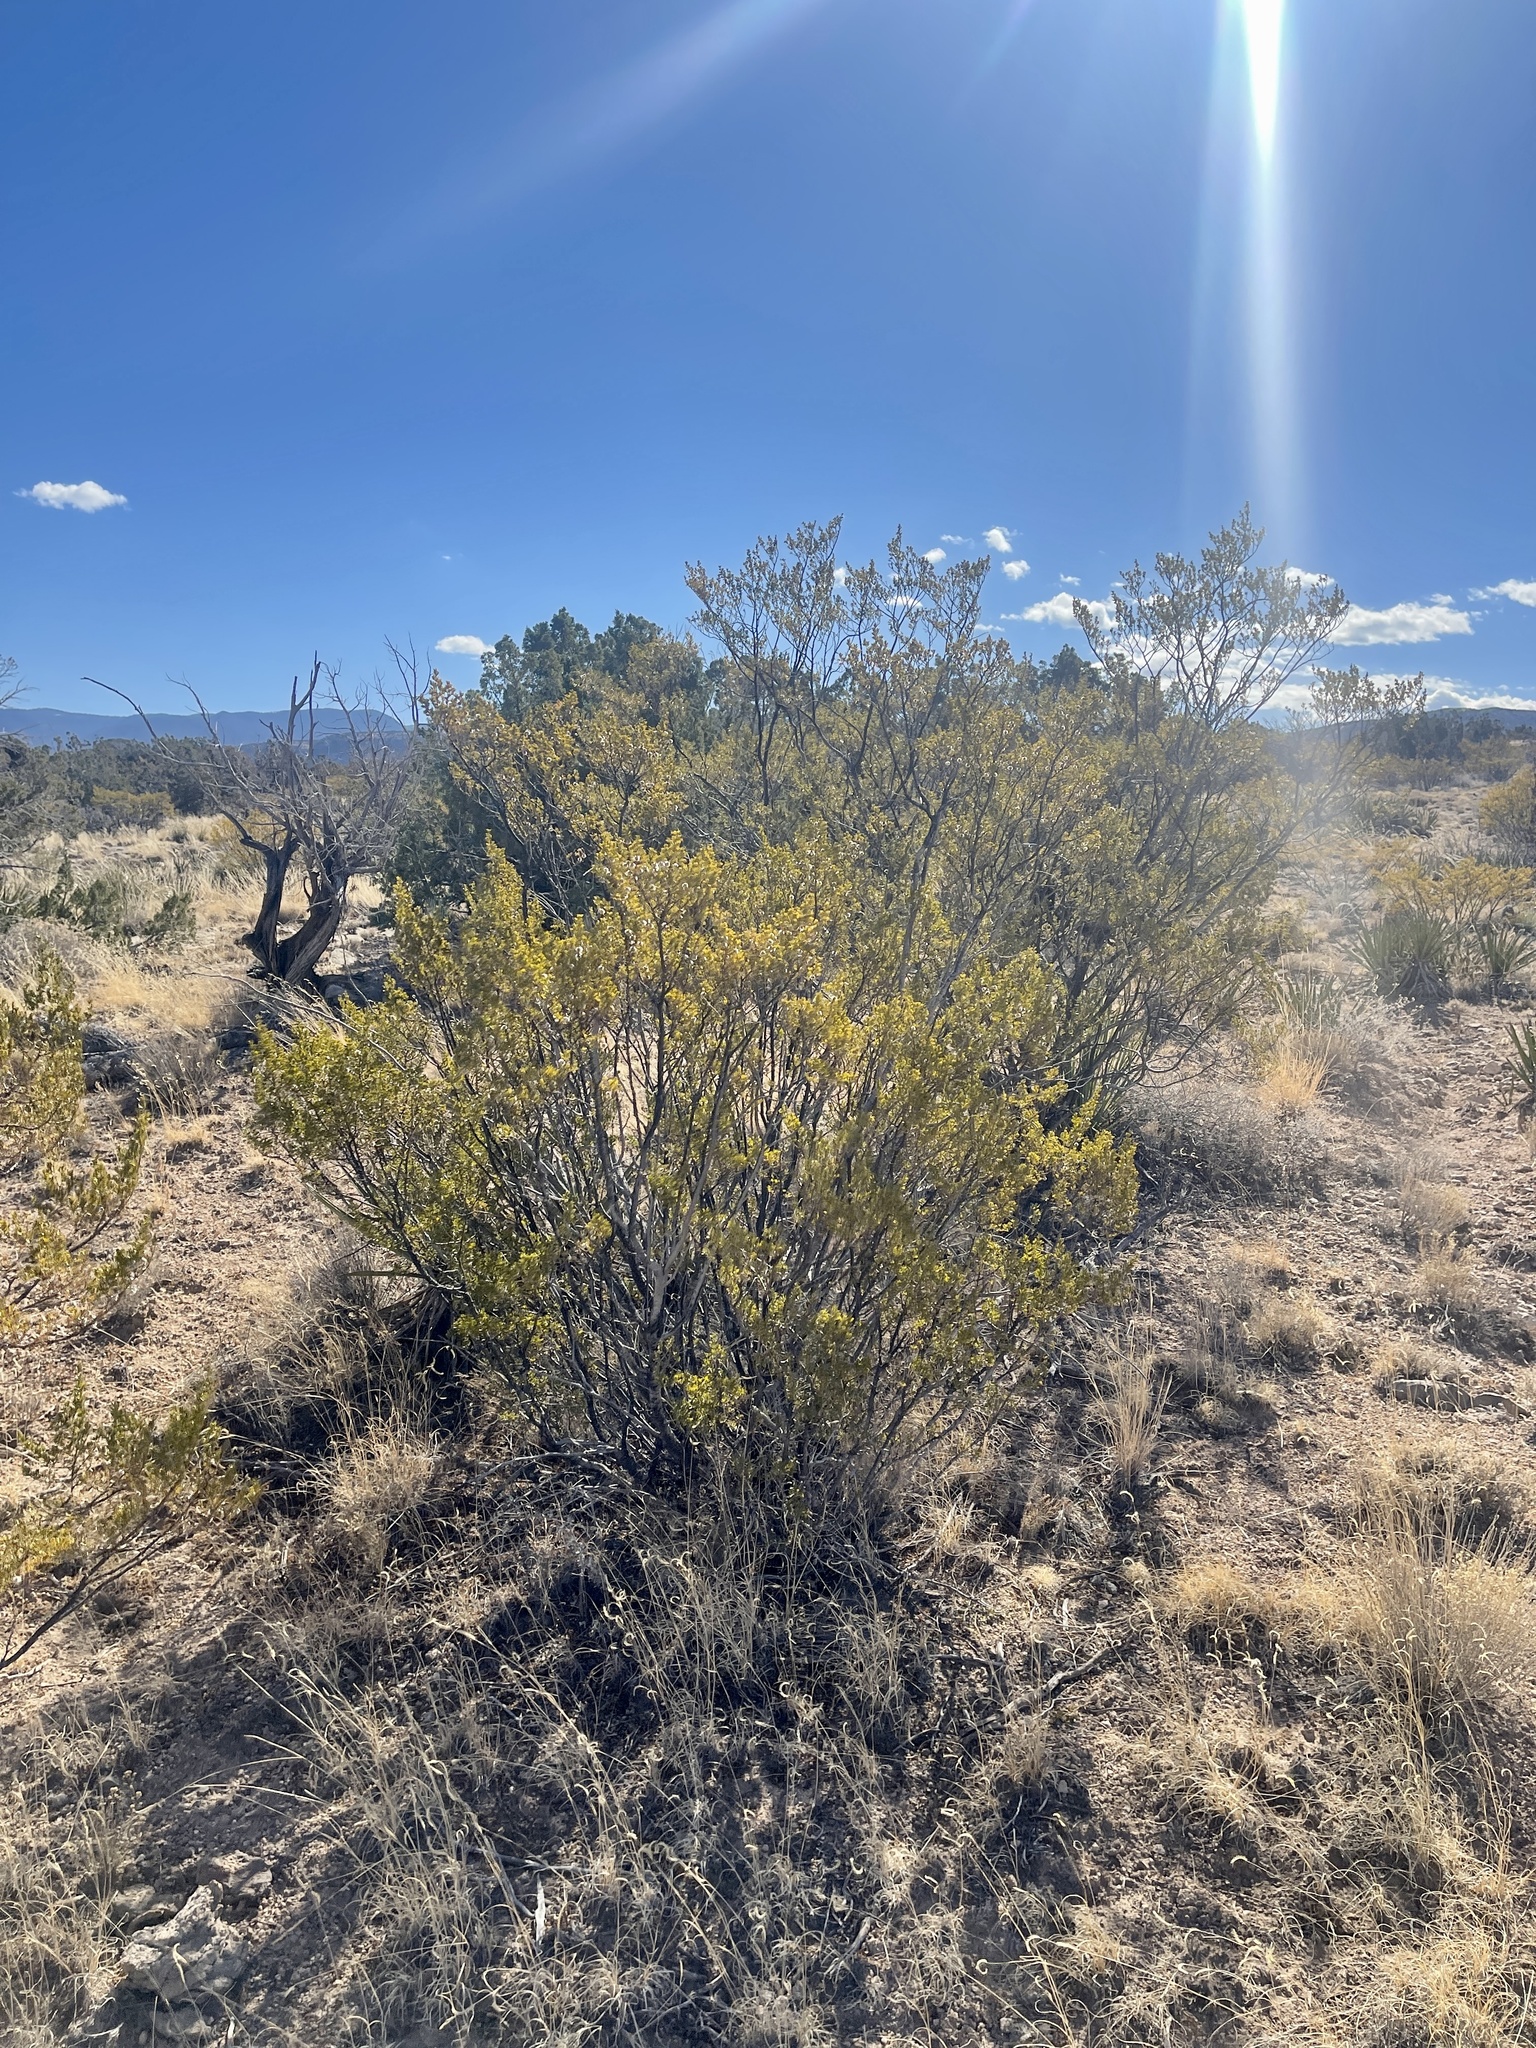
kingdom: Plantae
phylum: Tracheophyta
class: Magnoliopsida
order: Zygophyllales
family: Zygophyllaceae
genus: Larrea
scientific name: Larrea tridentata
